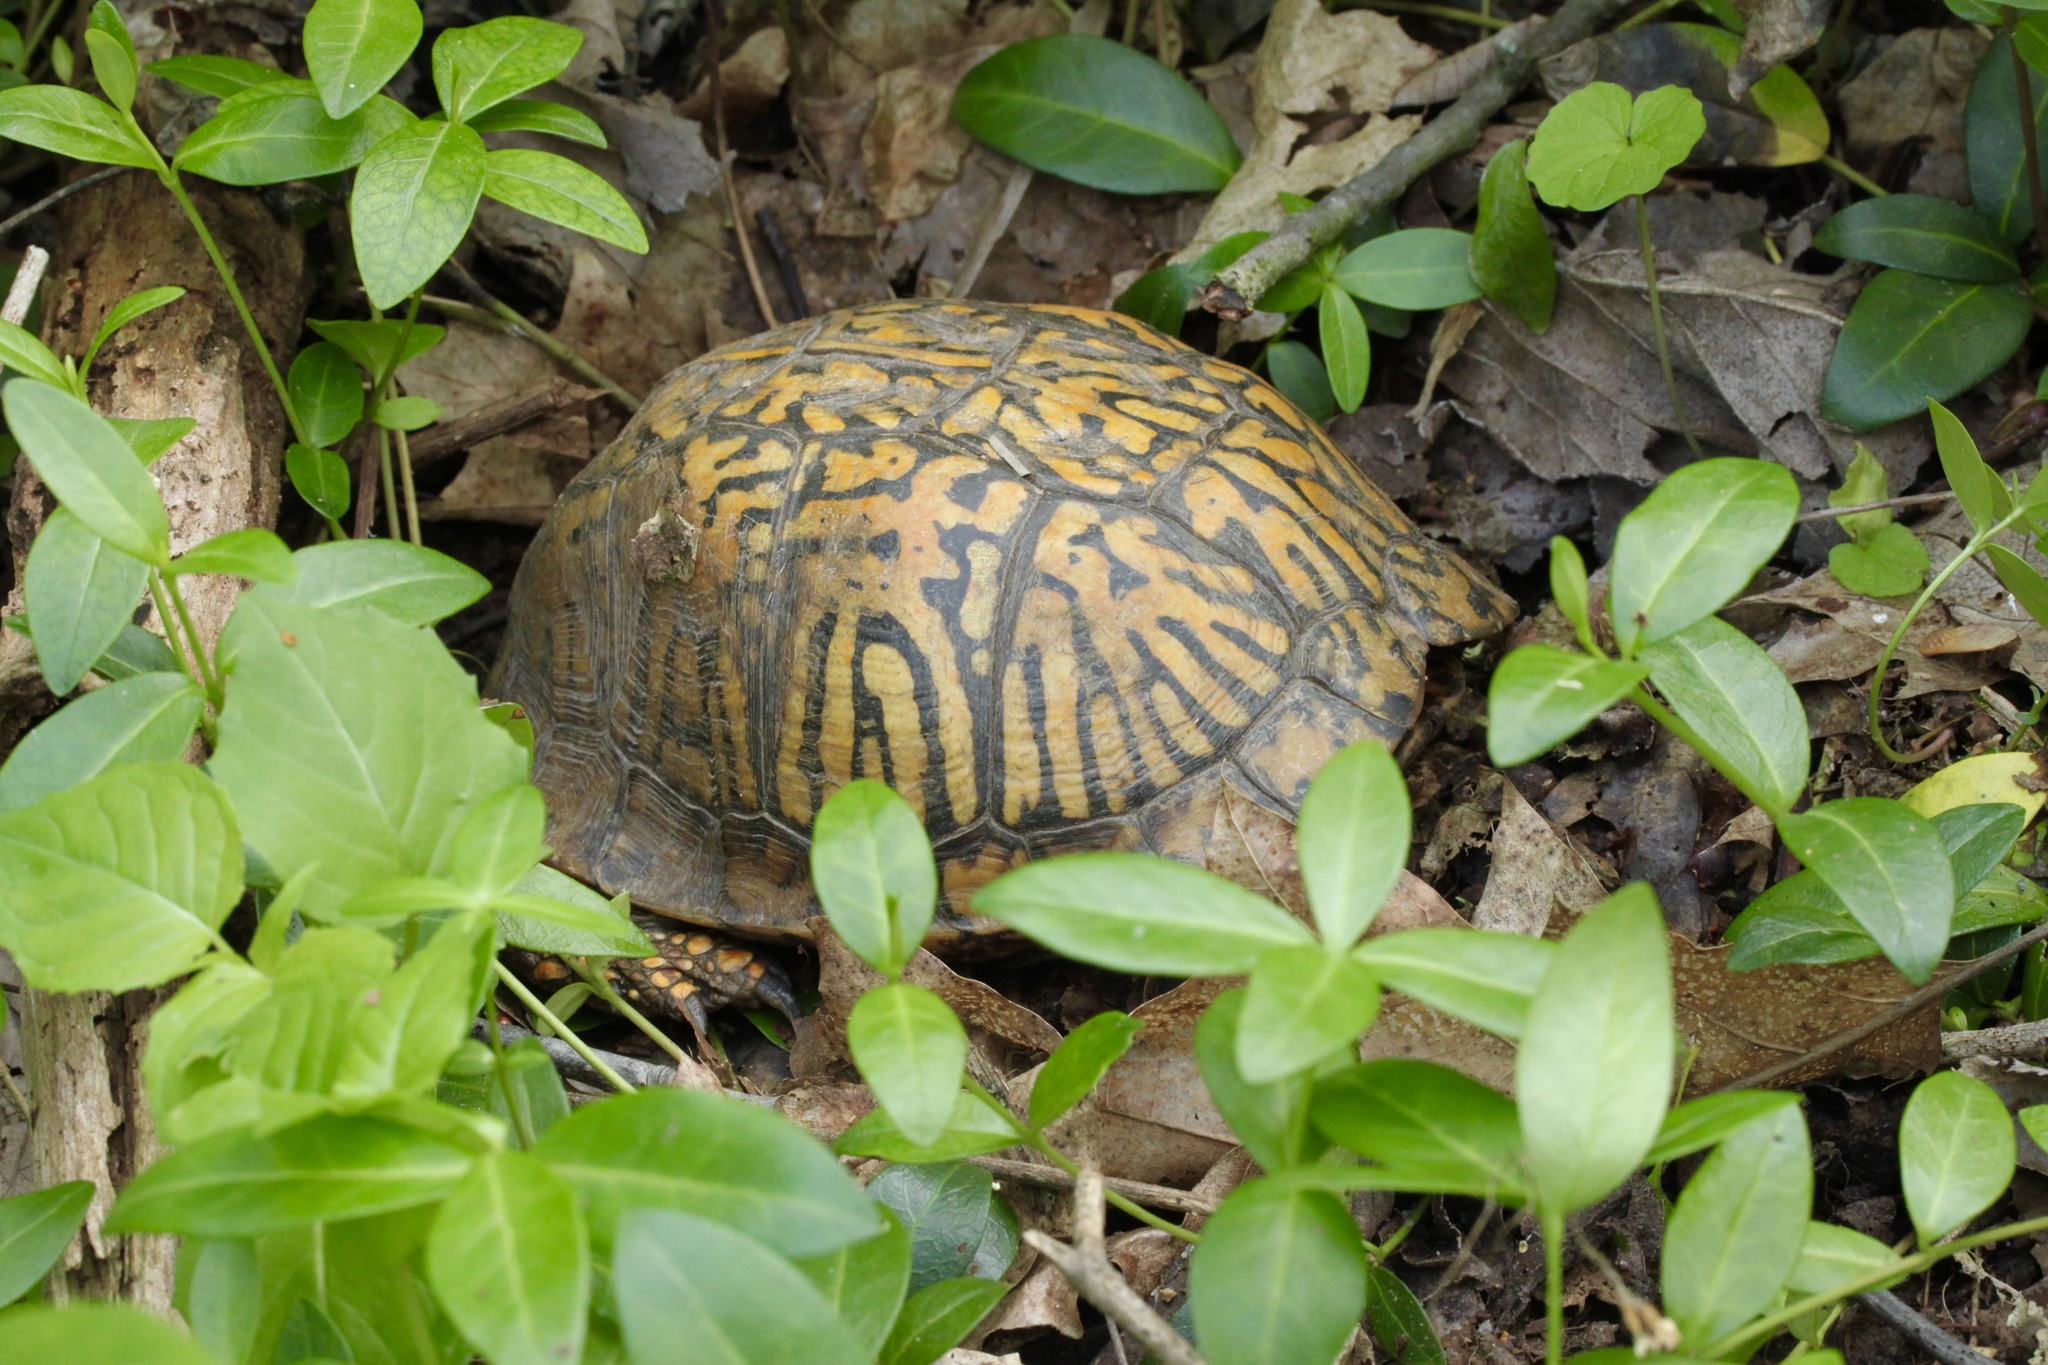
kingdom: Animalia
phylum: Chordata
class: Testudines
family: Emydidae
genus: Terrapene
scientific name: Terrapene carolina
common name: Common box turtle
